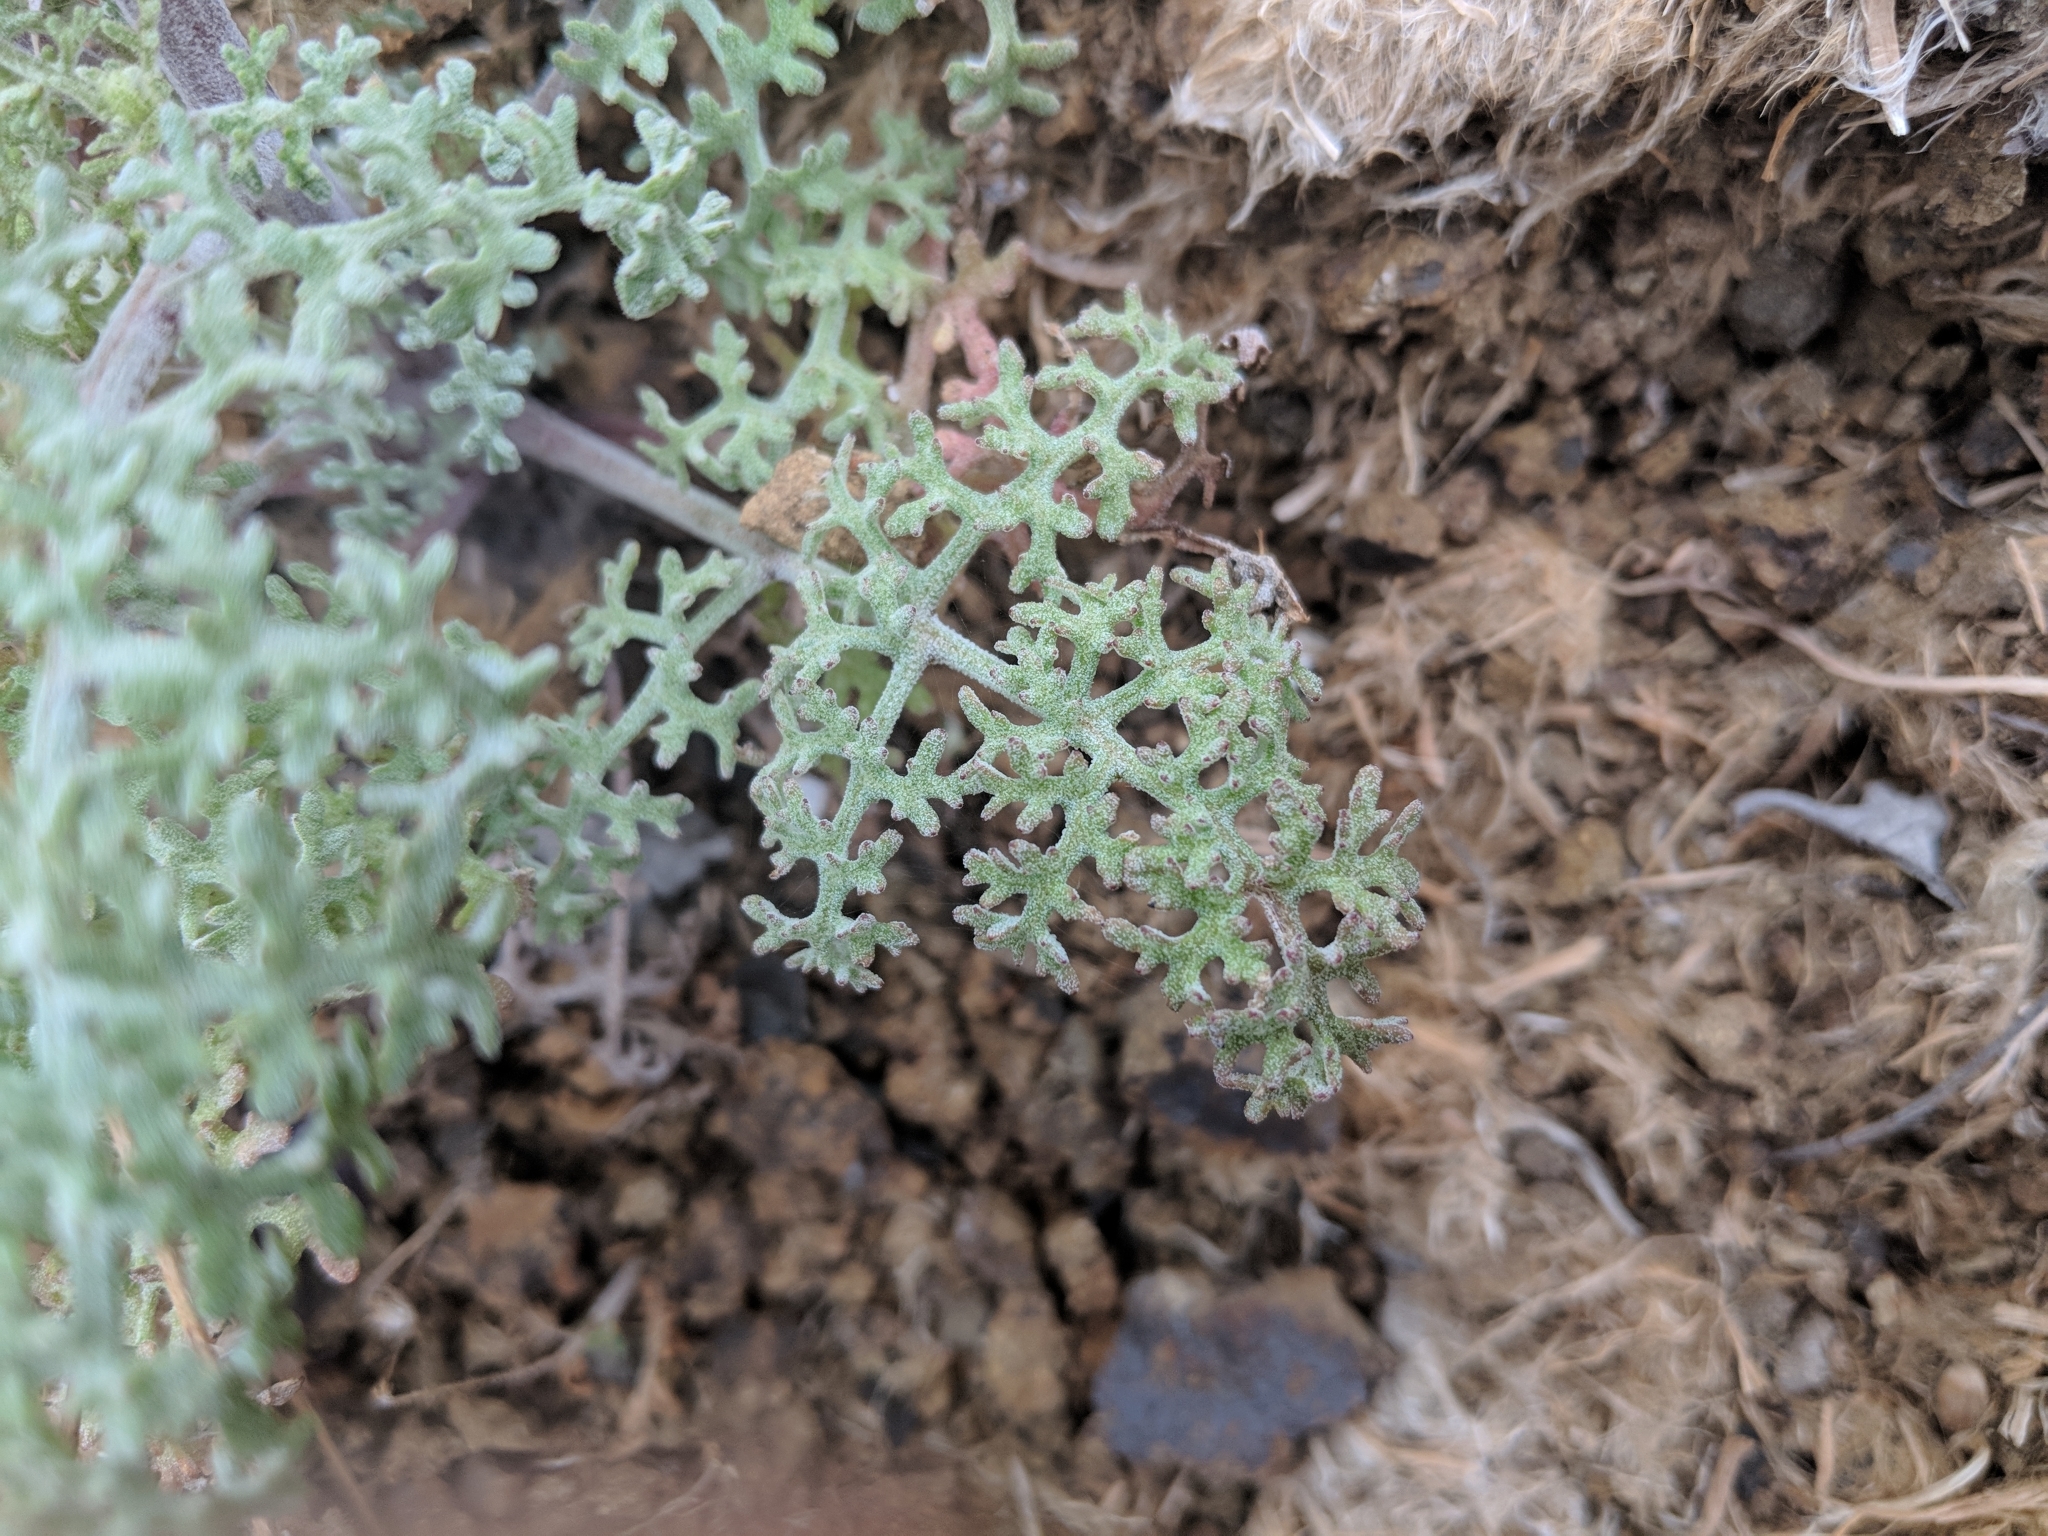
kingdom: Plantae
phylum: Tracheophyta
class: Magnoliopsida
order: Asterales
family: Asteraceae
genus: Chaenactis
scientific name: Chaenactis artemisiifolia
